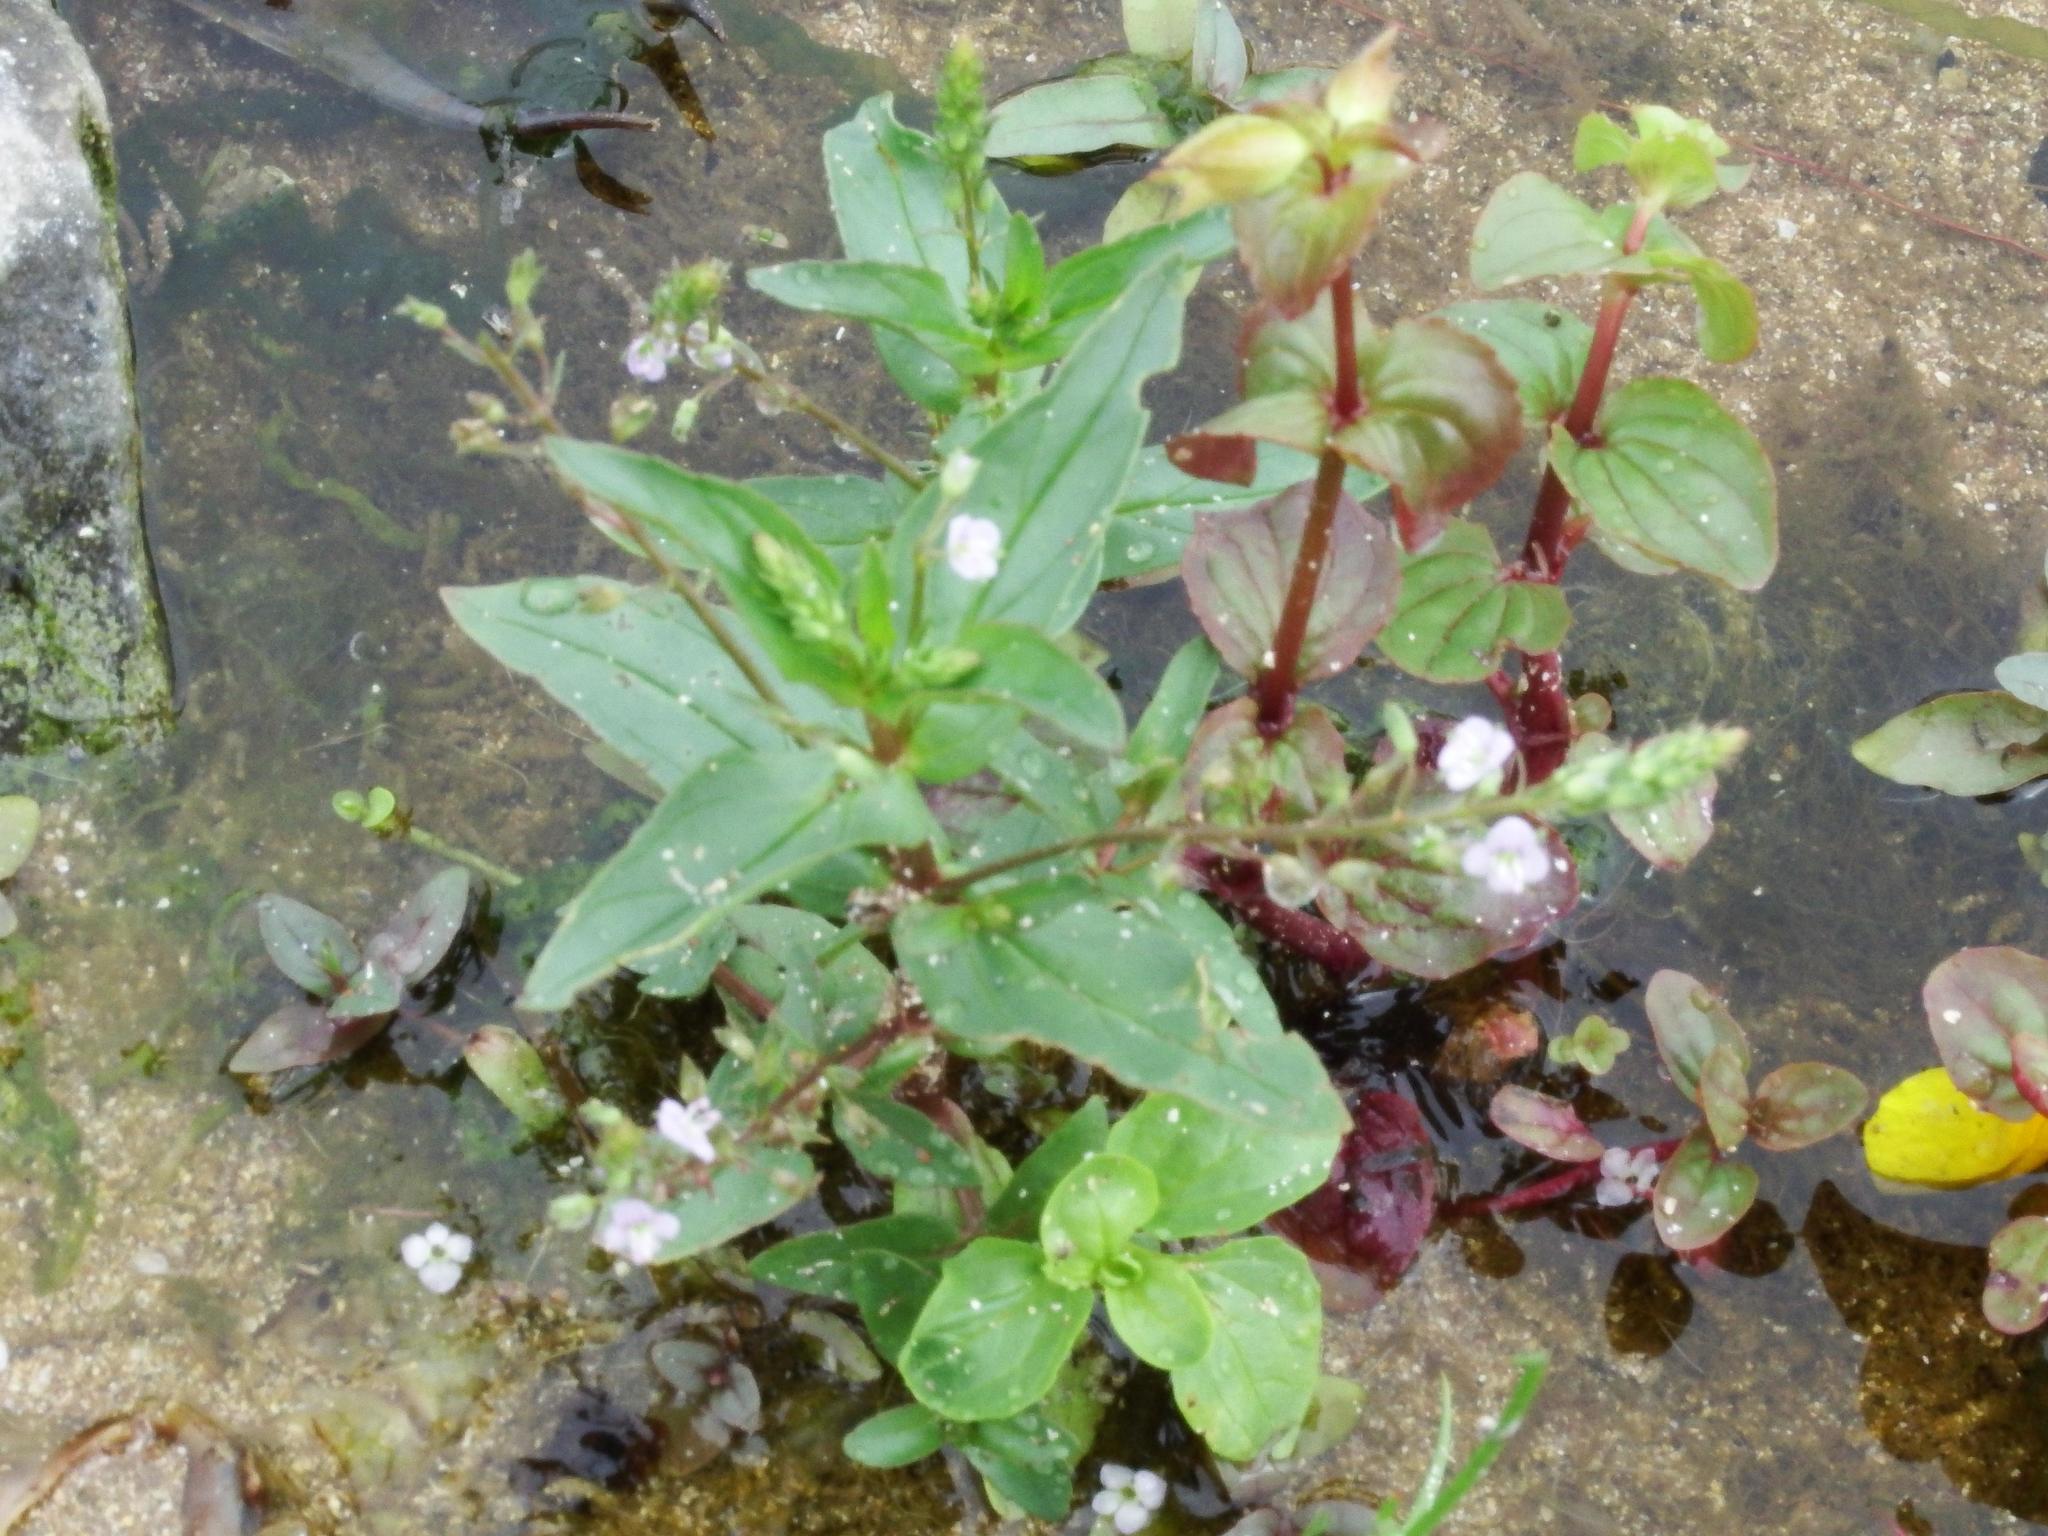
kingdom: Plantae
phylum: Tracheophyta
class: Magnoliopsida
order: Lamiales
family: Plantaginaceae
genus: Veronica
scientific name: Veronica anagallis-aquatica
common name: Water speedwell
